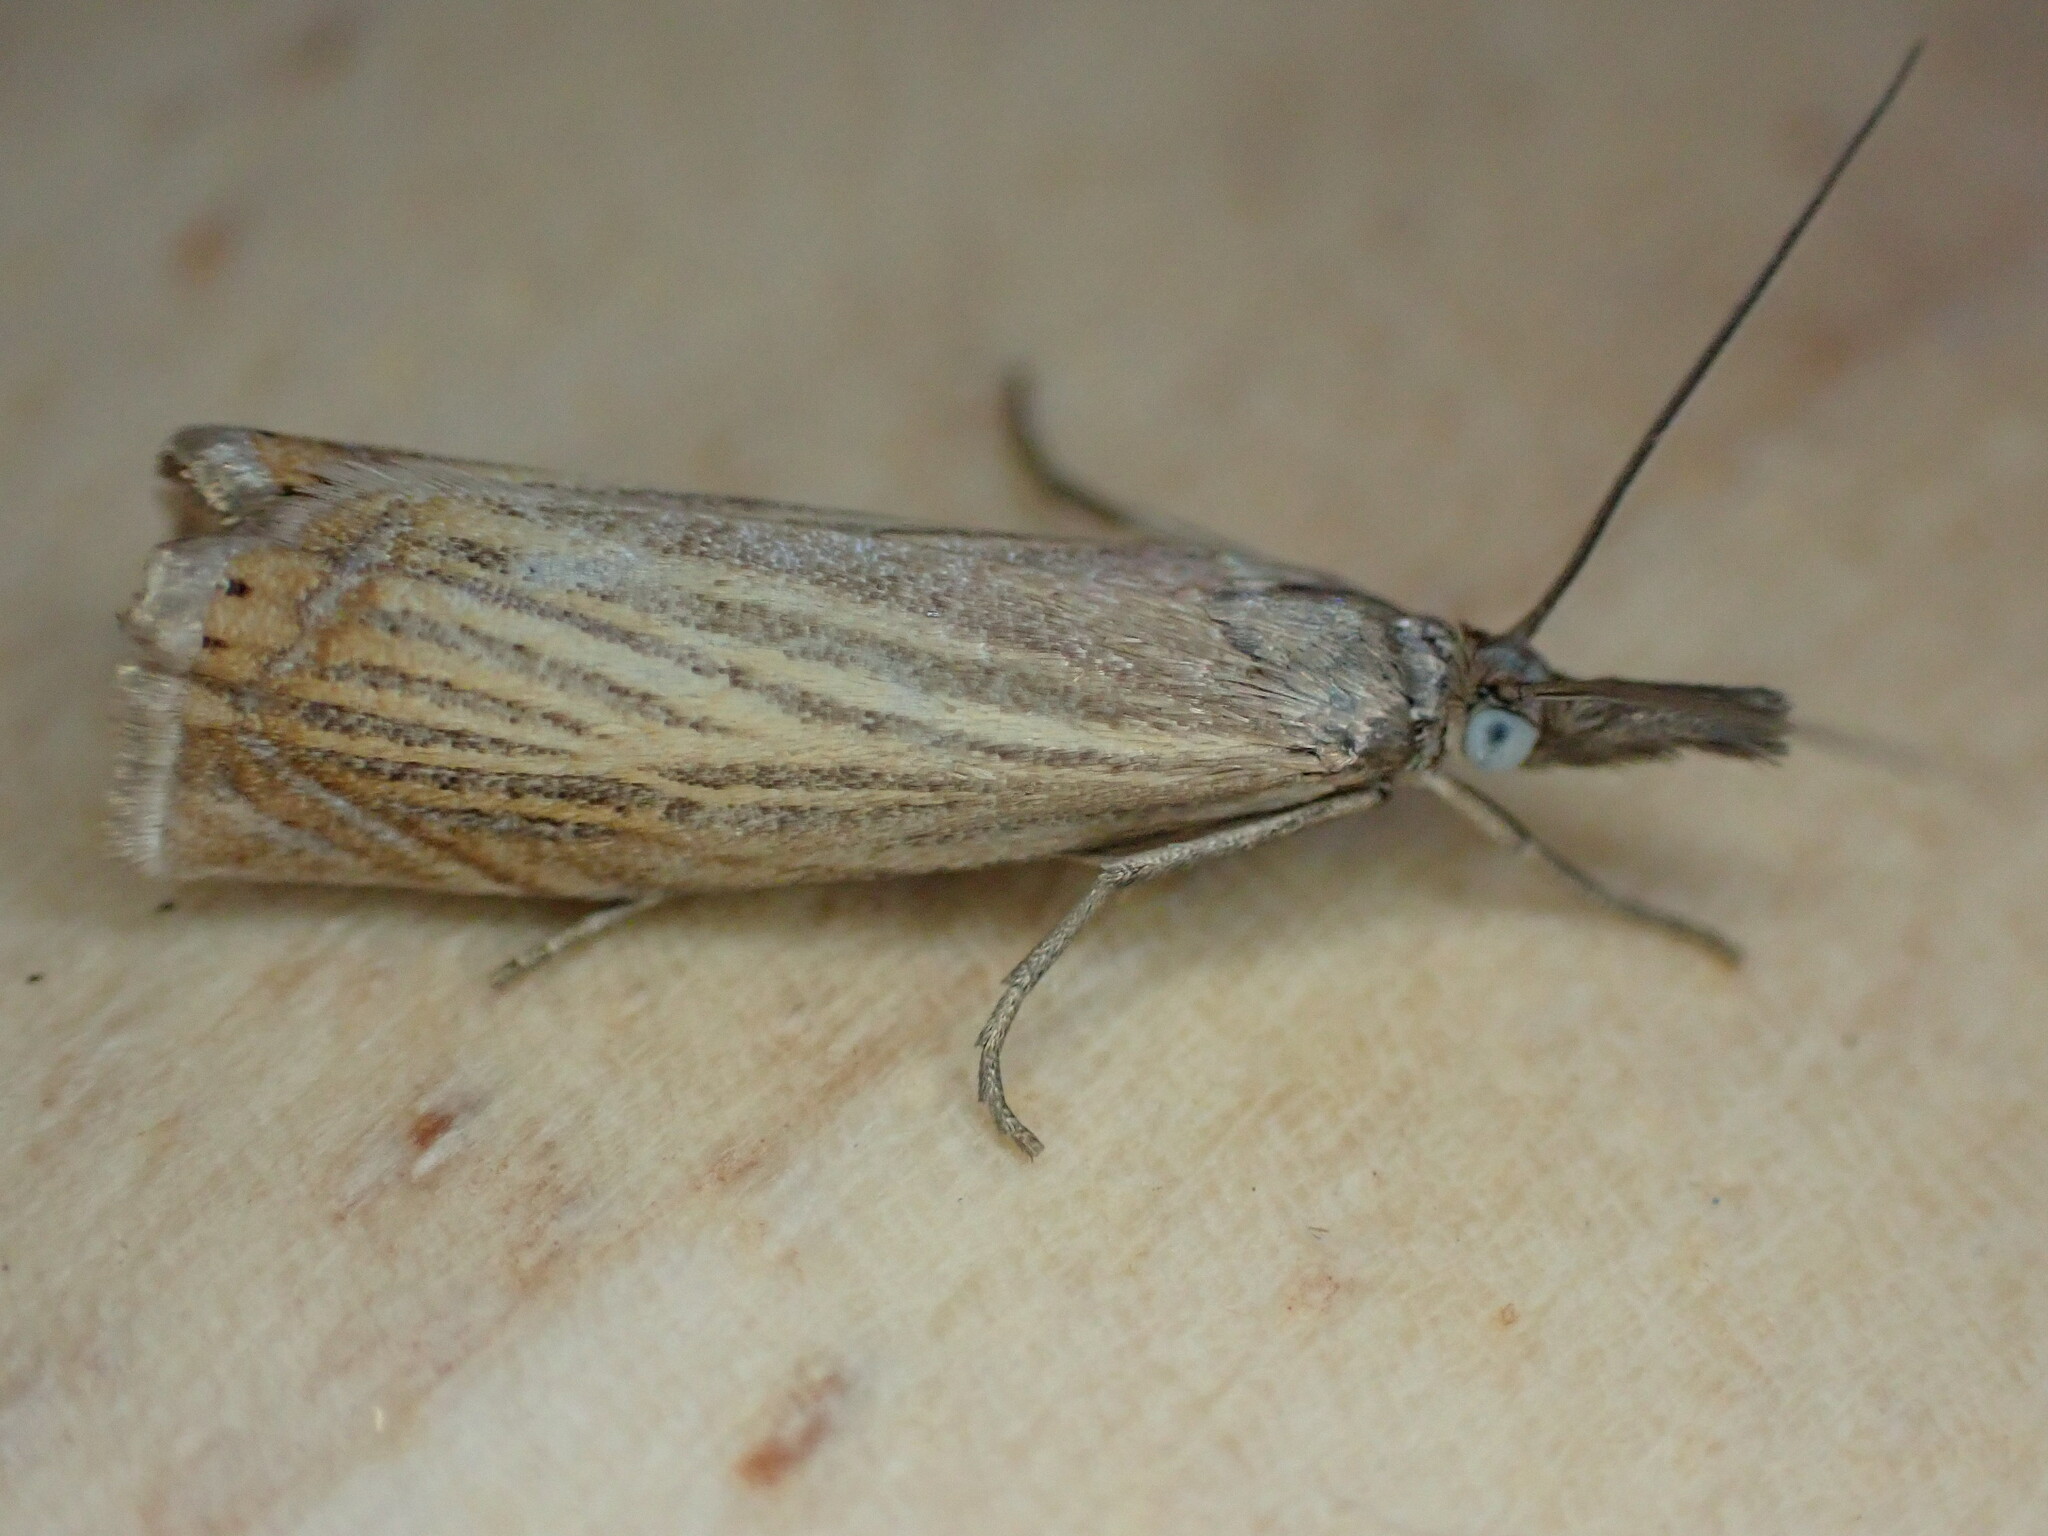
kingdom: Animalia
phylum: Arthropoda
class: Insecta
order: Lepidoptera
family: Crambidae
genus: Chrysoteuchia
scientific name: Chrysoteuchia culmella
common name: Garden grass-veneer
